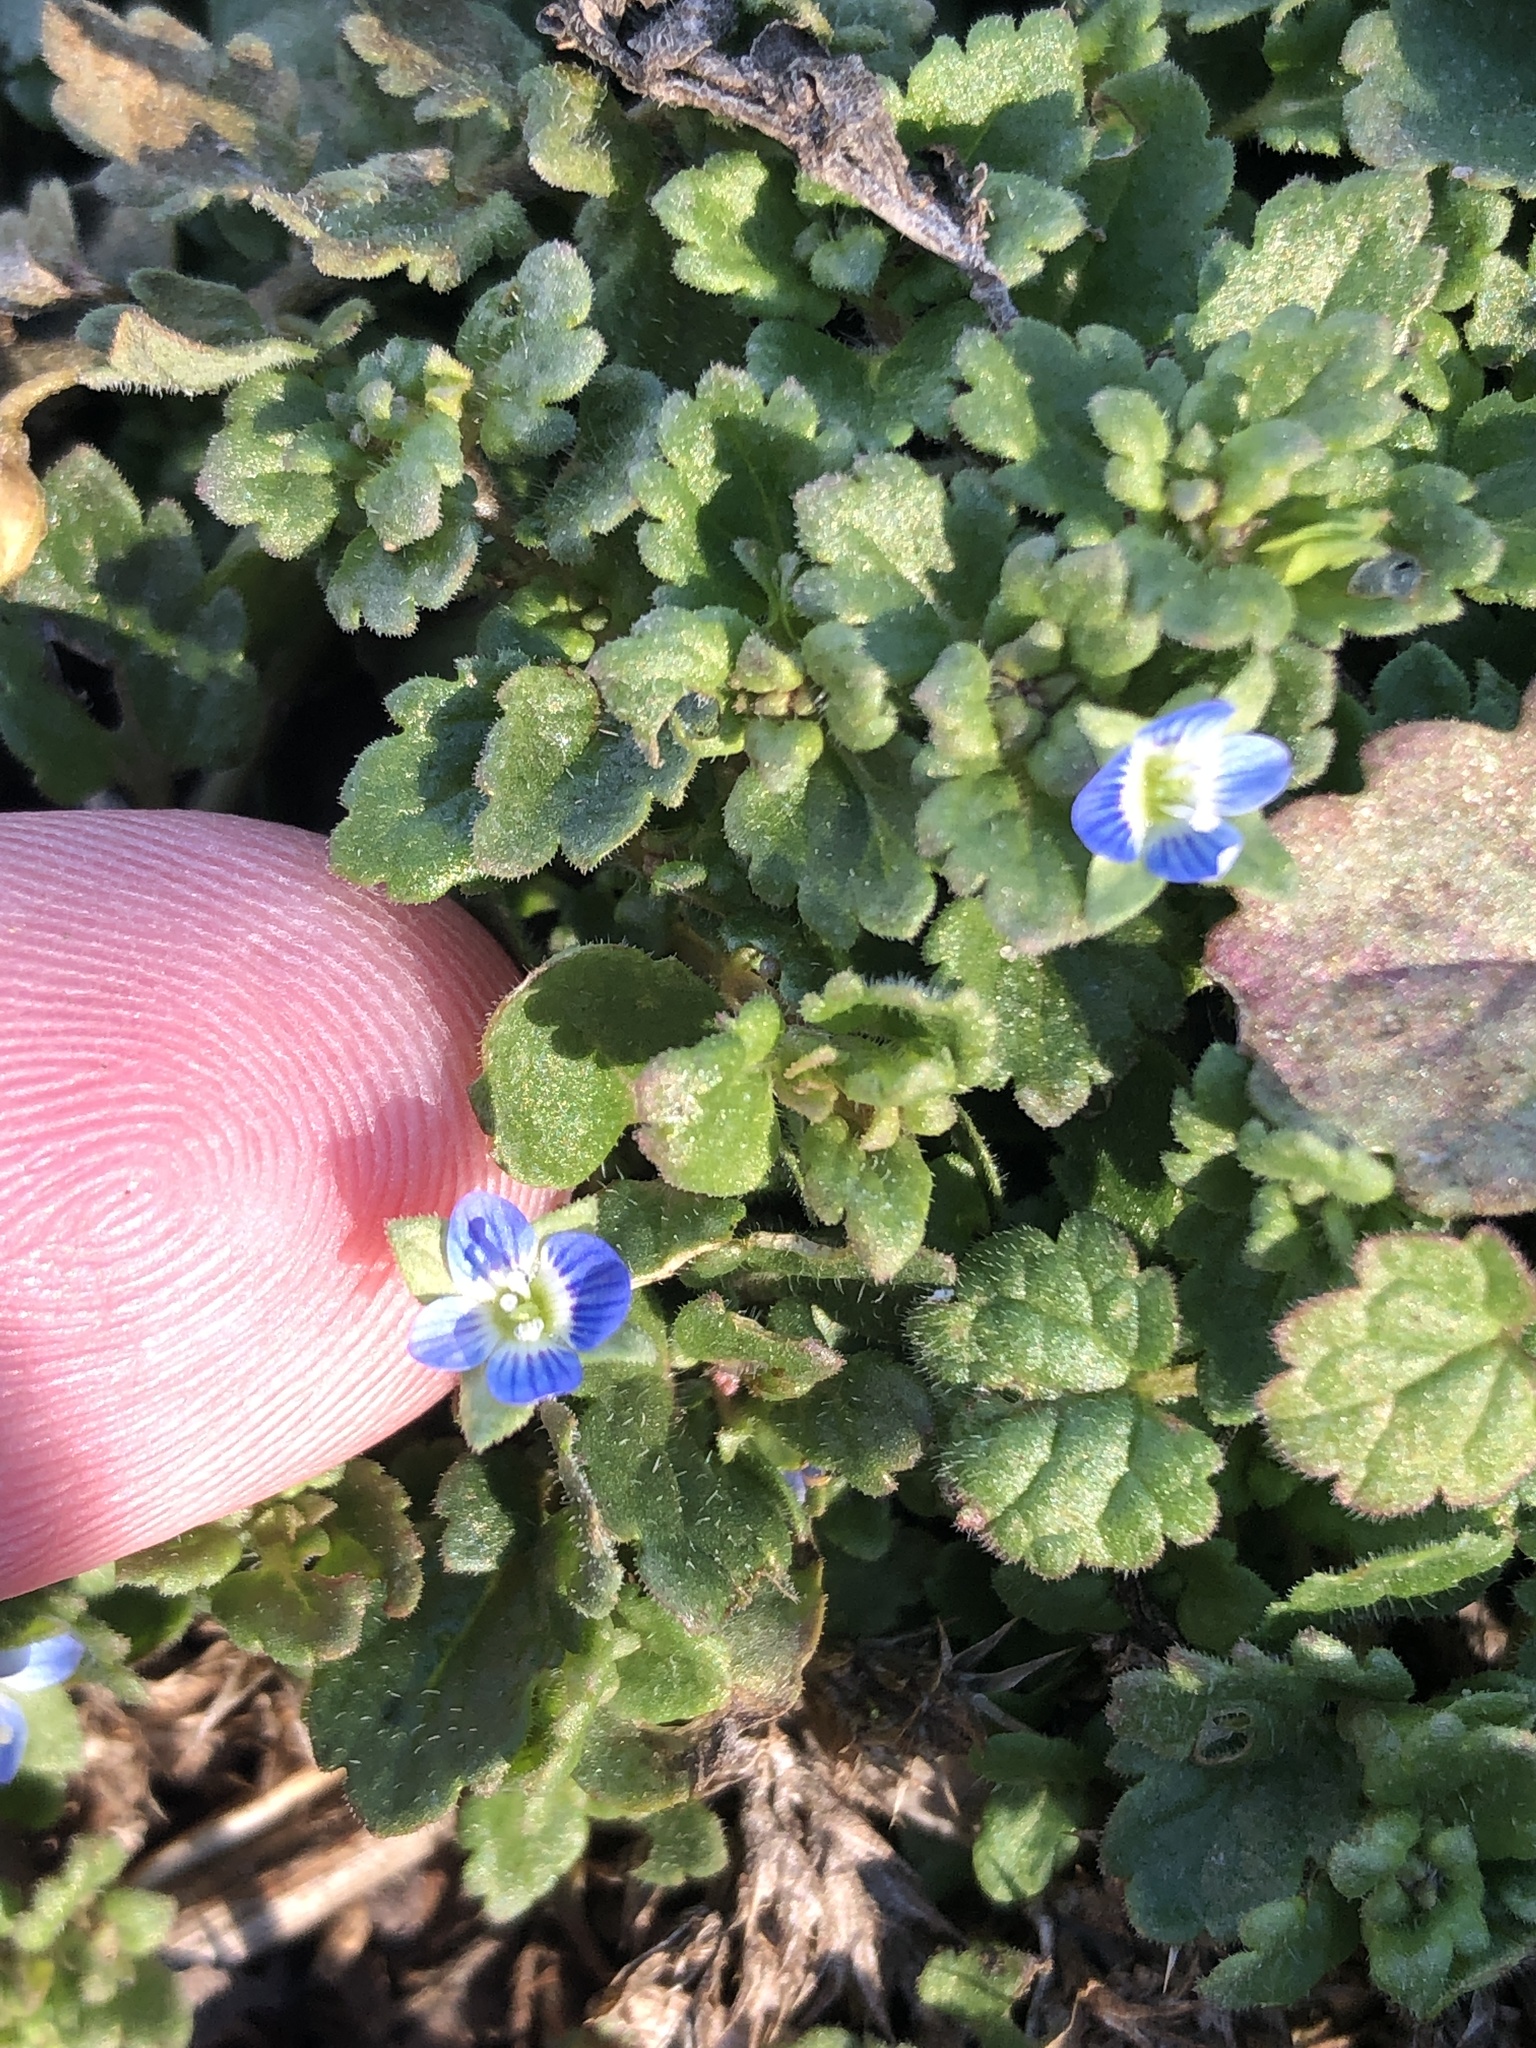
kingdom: Plantae
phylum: Tracheophyta
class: Magnoliopsida
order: Lamiales
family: Plantaginaceae
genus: Veronica
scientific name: Veronica polita
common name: Grey field-speedwell
